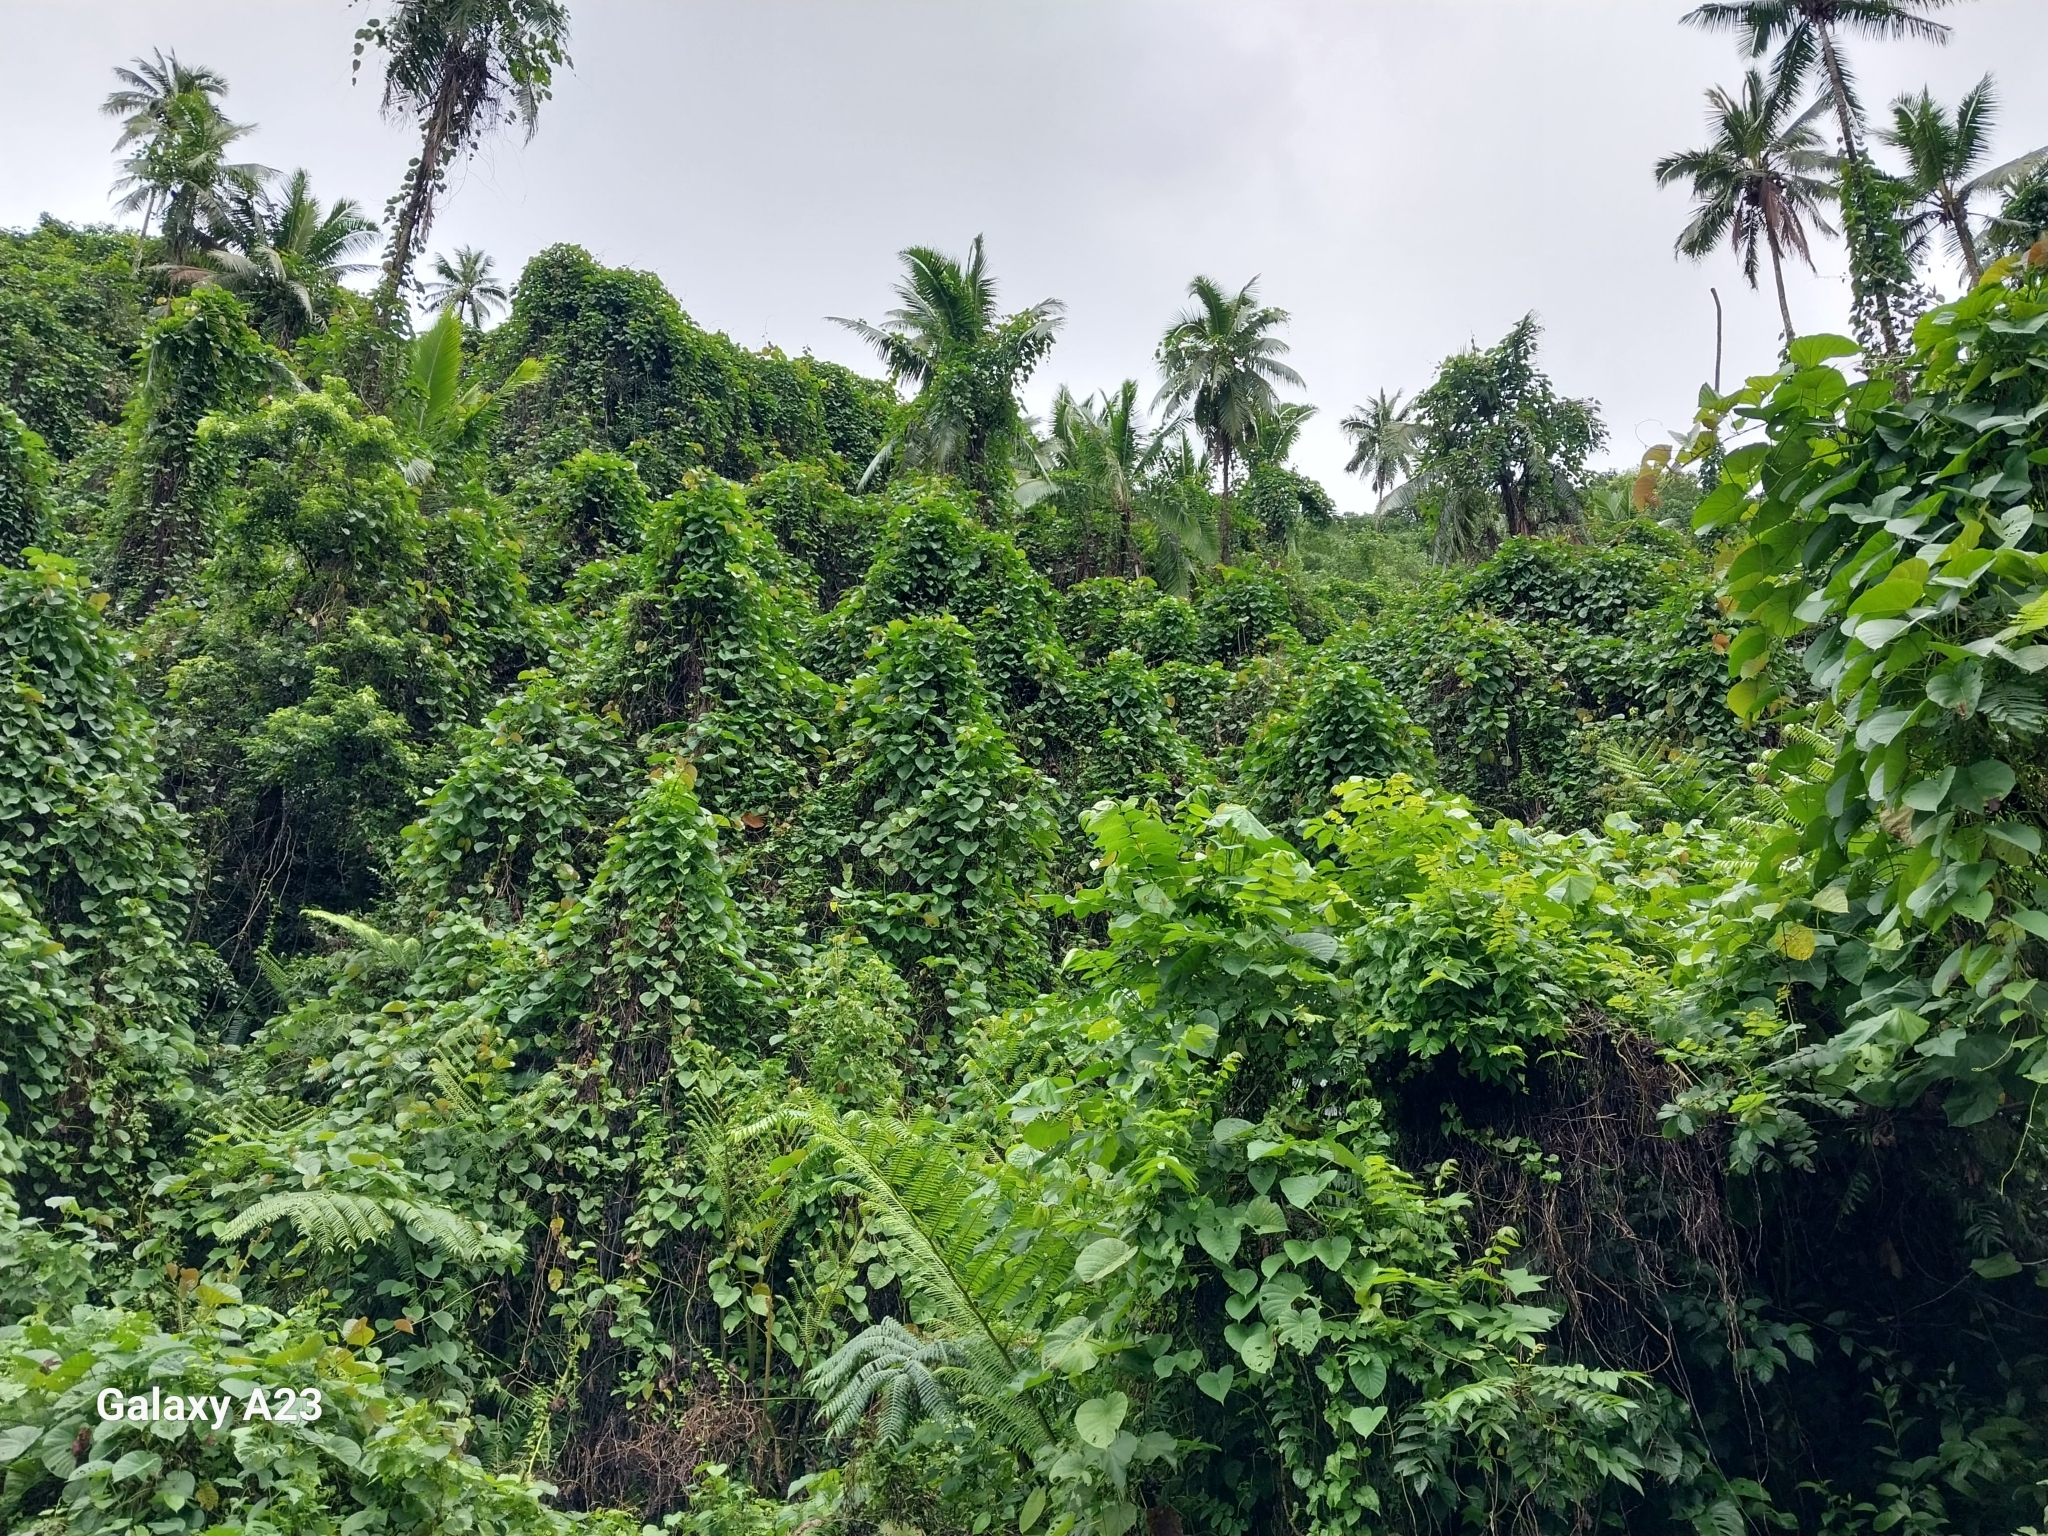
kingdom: Plantae
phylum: Tracheophyta
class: Magnoliopsida
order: Solanales
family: Convolvulaceae
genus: Decalobanthus
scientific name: Decalobanthus peltatus
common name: Merremia
